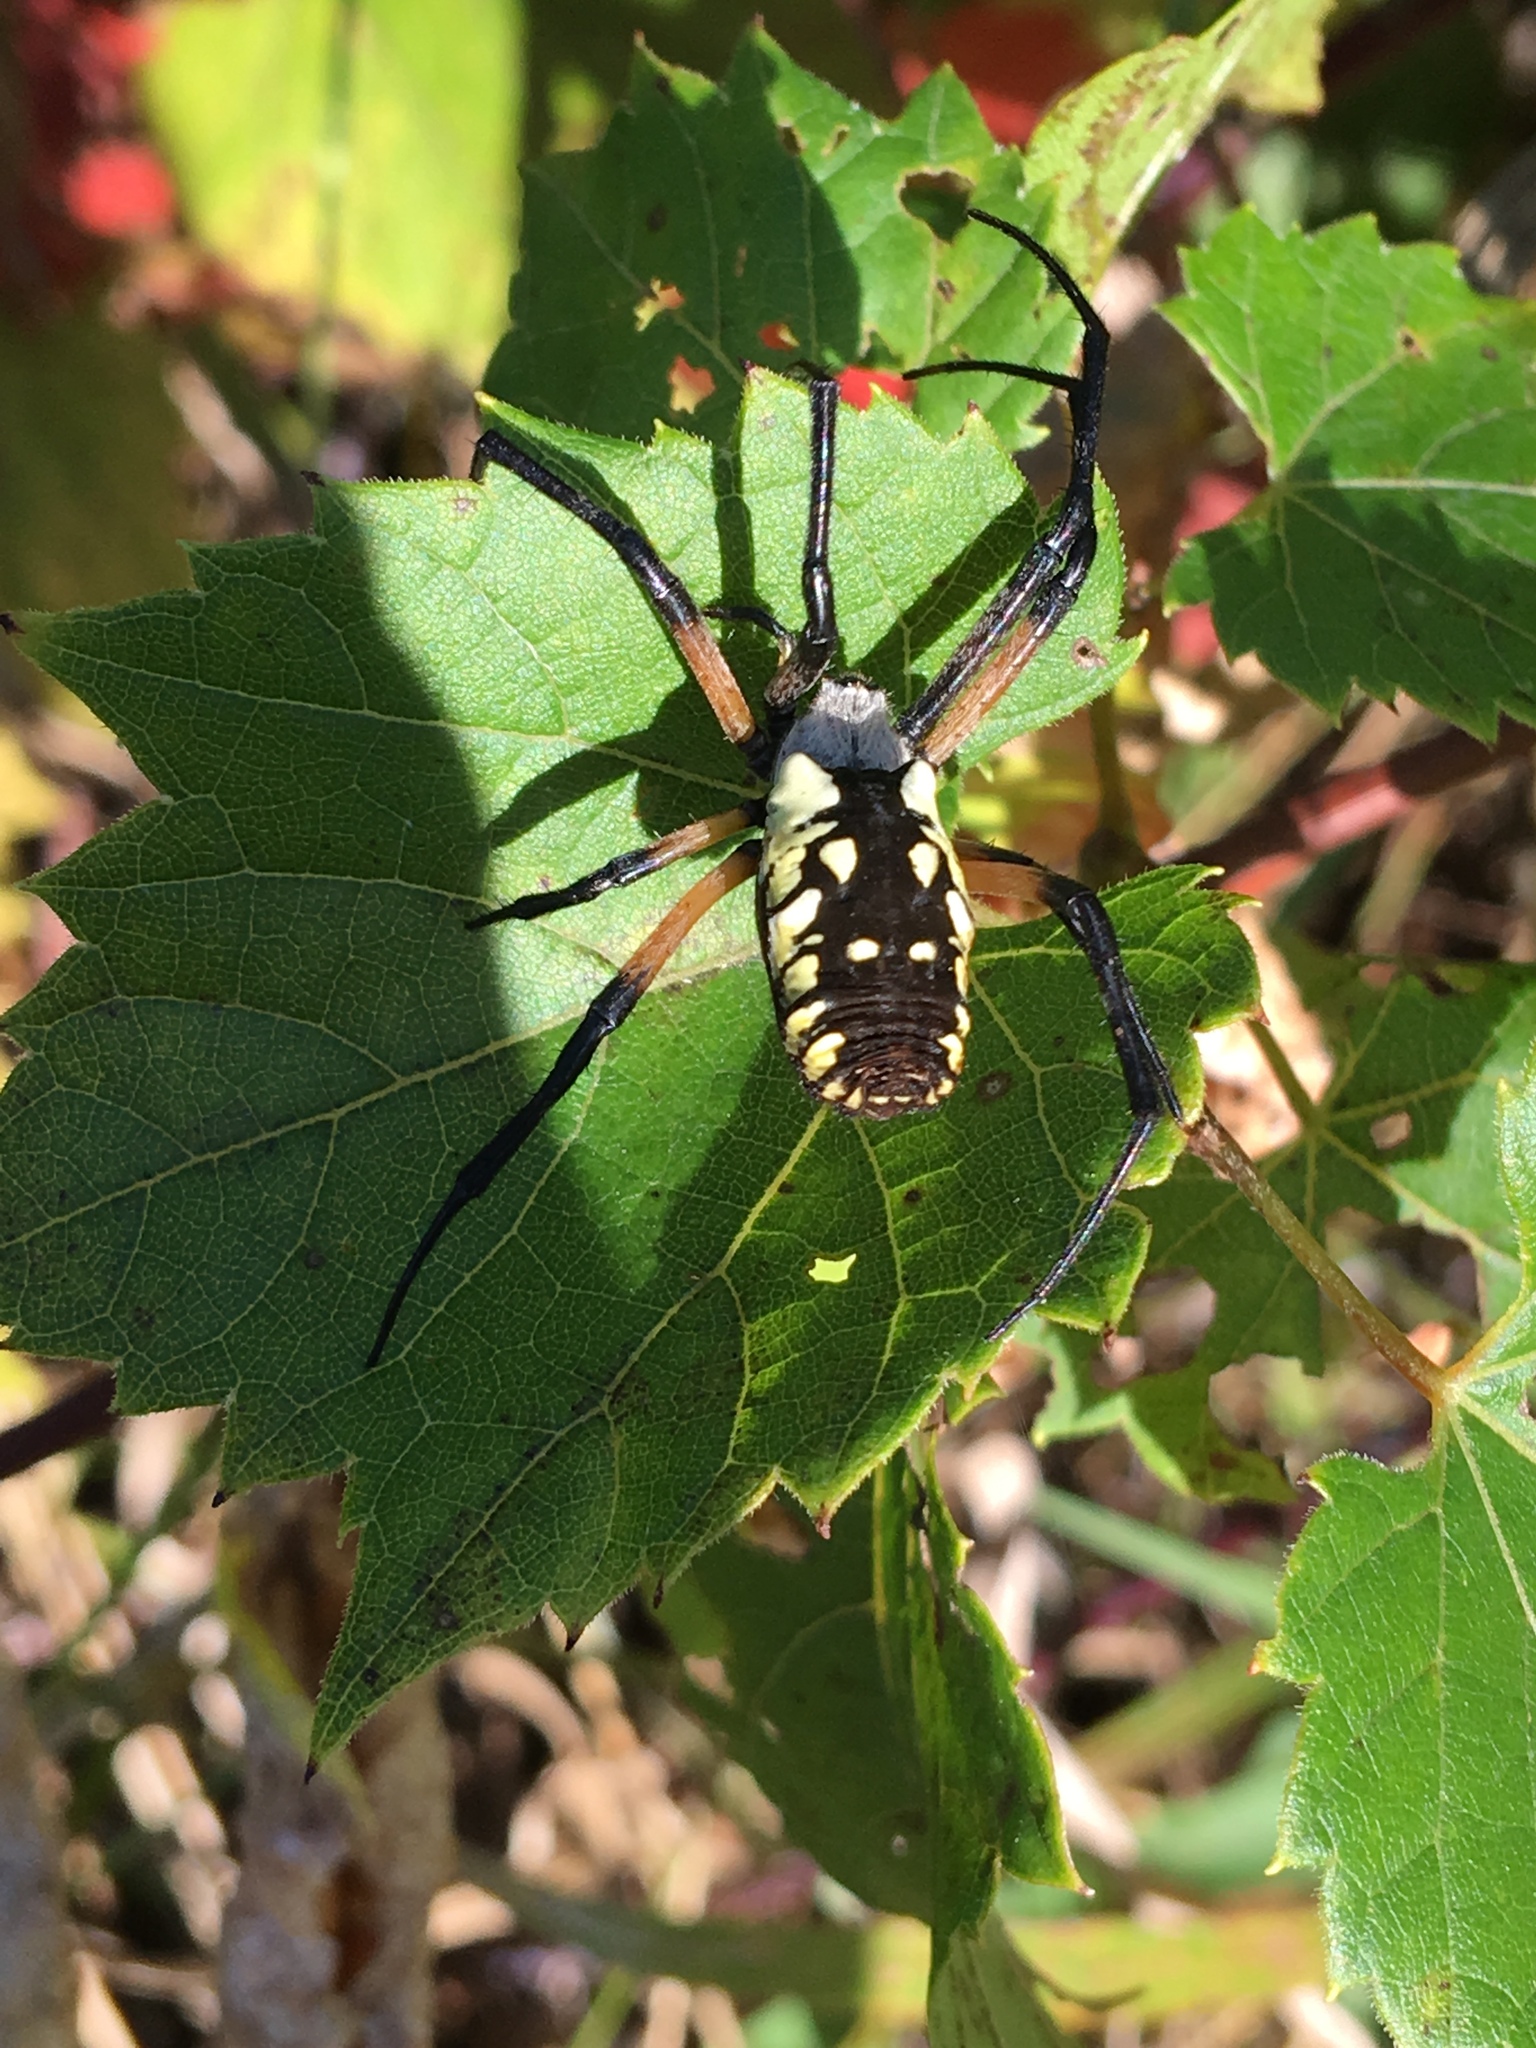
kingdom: Animalia
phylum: Arthropoda
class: Arachnida
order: Araneae
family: Araneidae
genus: Argiope
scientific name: Argiope aurantia
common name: Orb weavers
